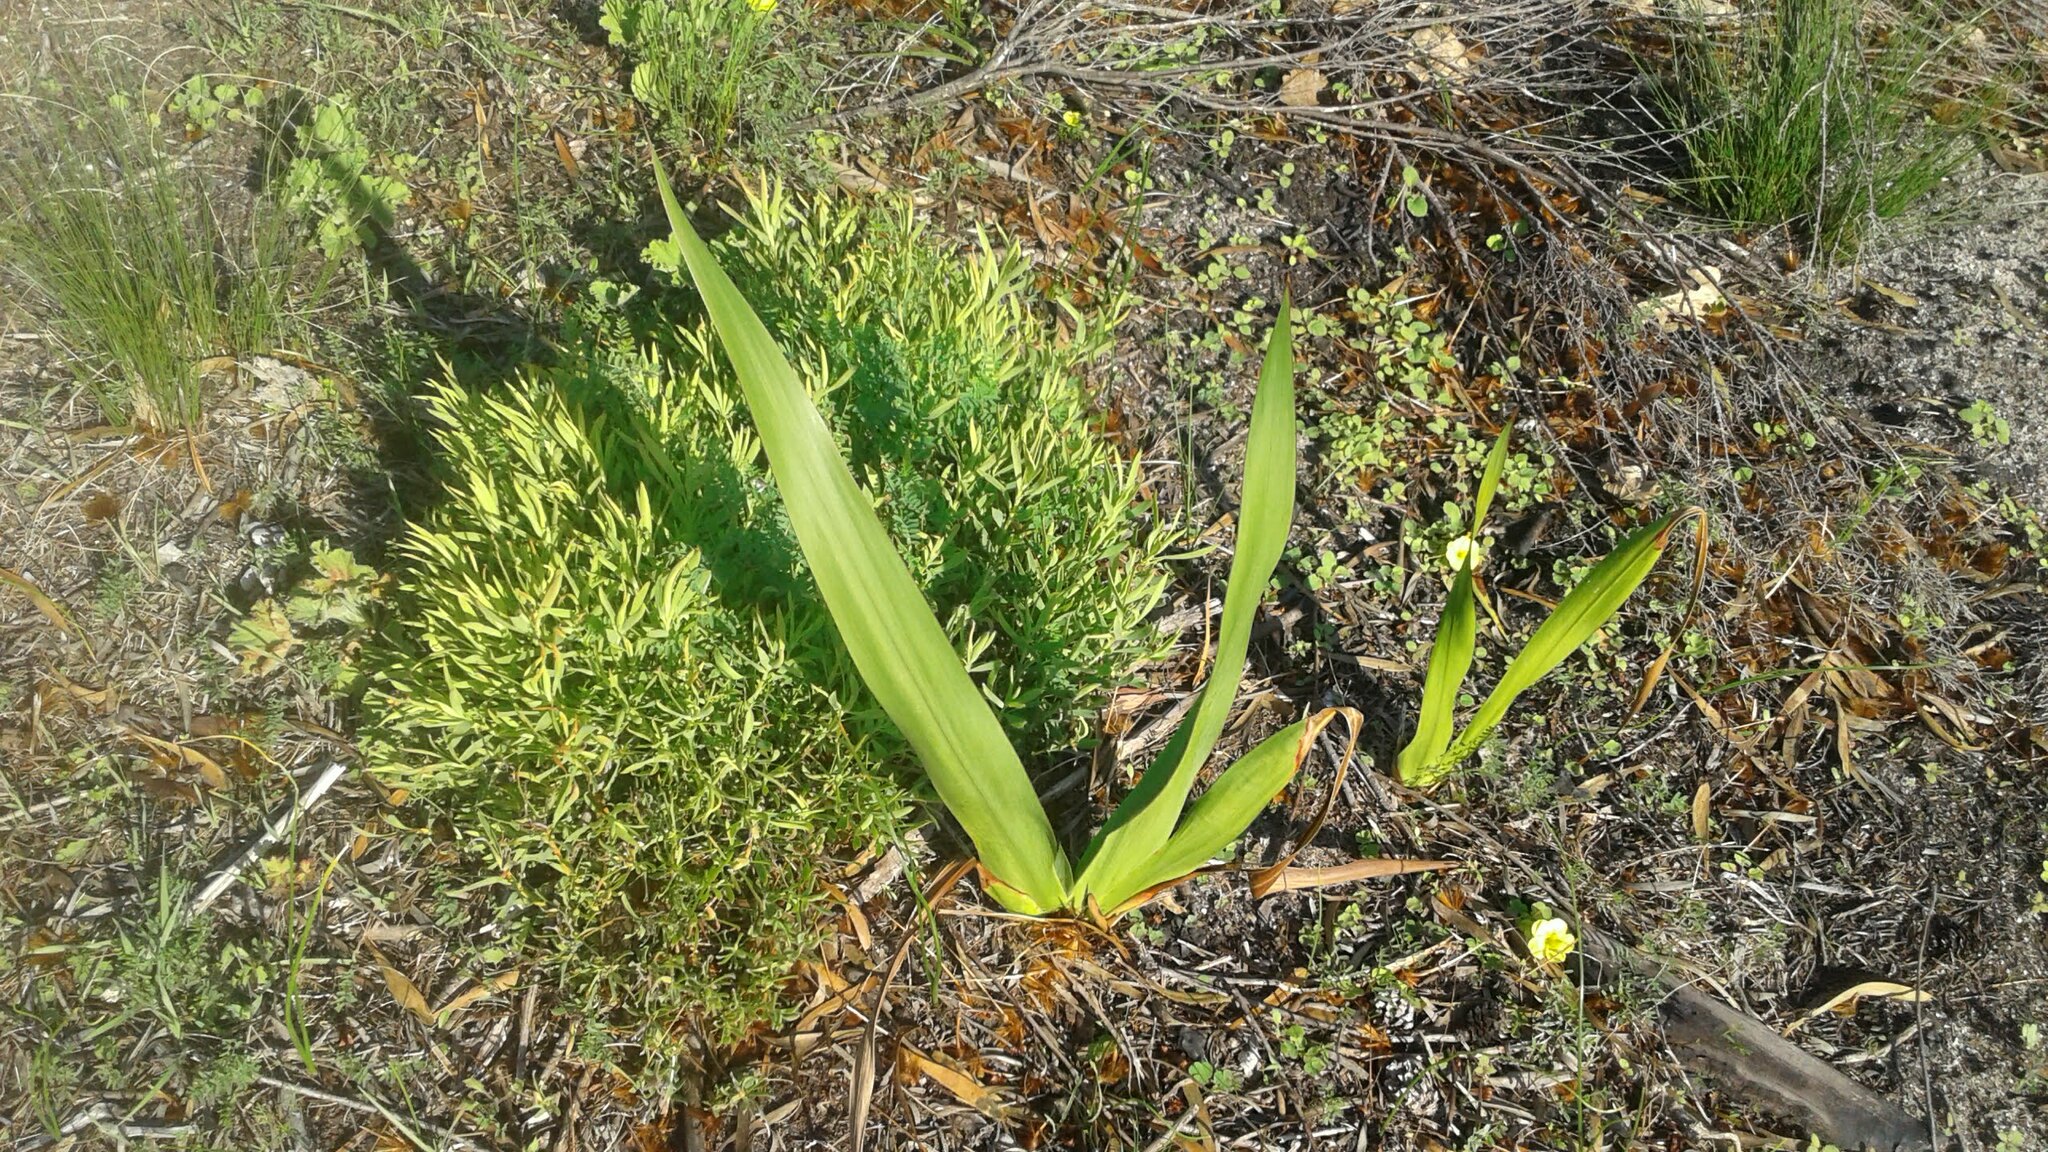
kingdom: Plantae
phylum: Tracheophyta
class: Liliopsida
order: Asparagales
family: Iridaceae
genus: Watsonia
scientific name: Watsonia tabularis
